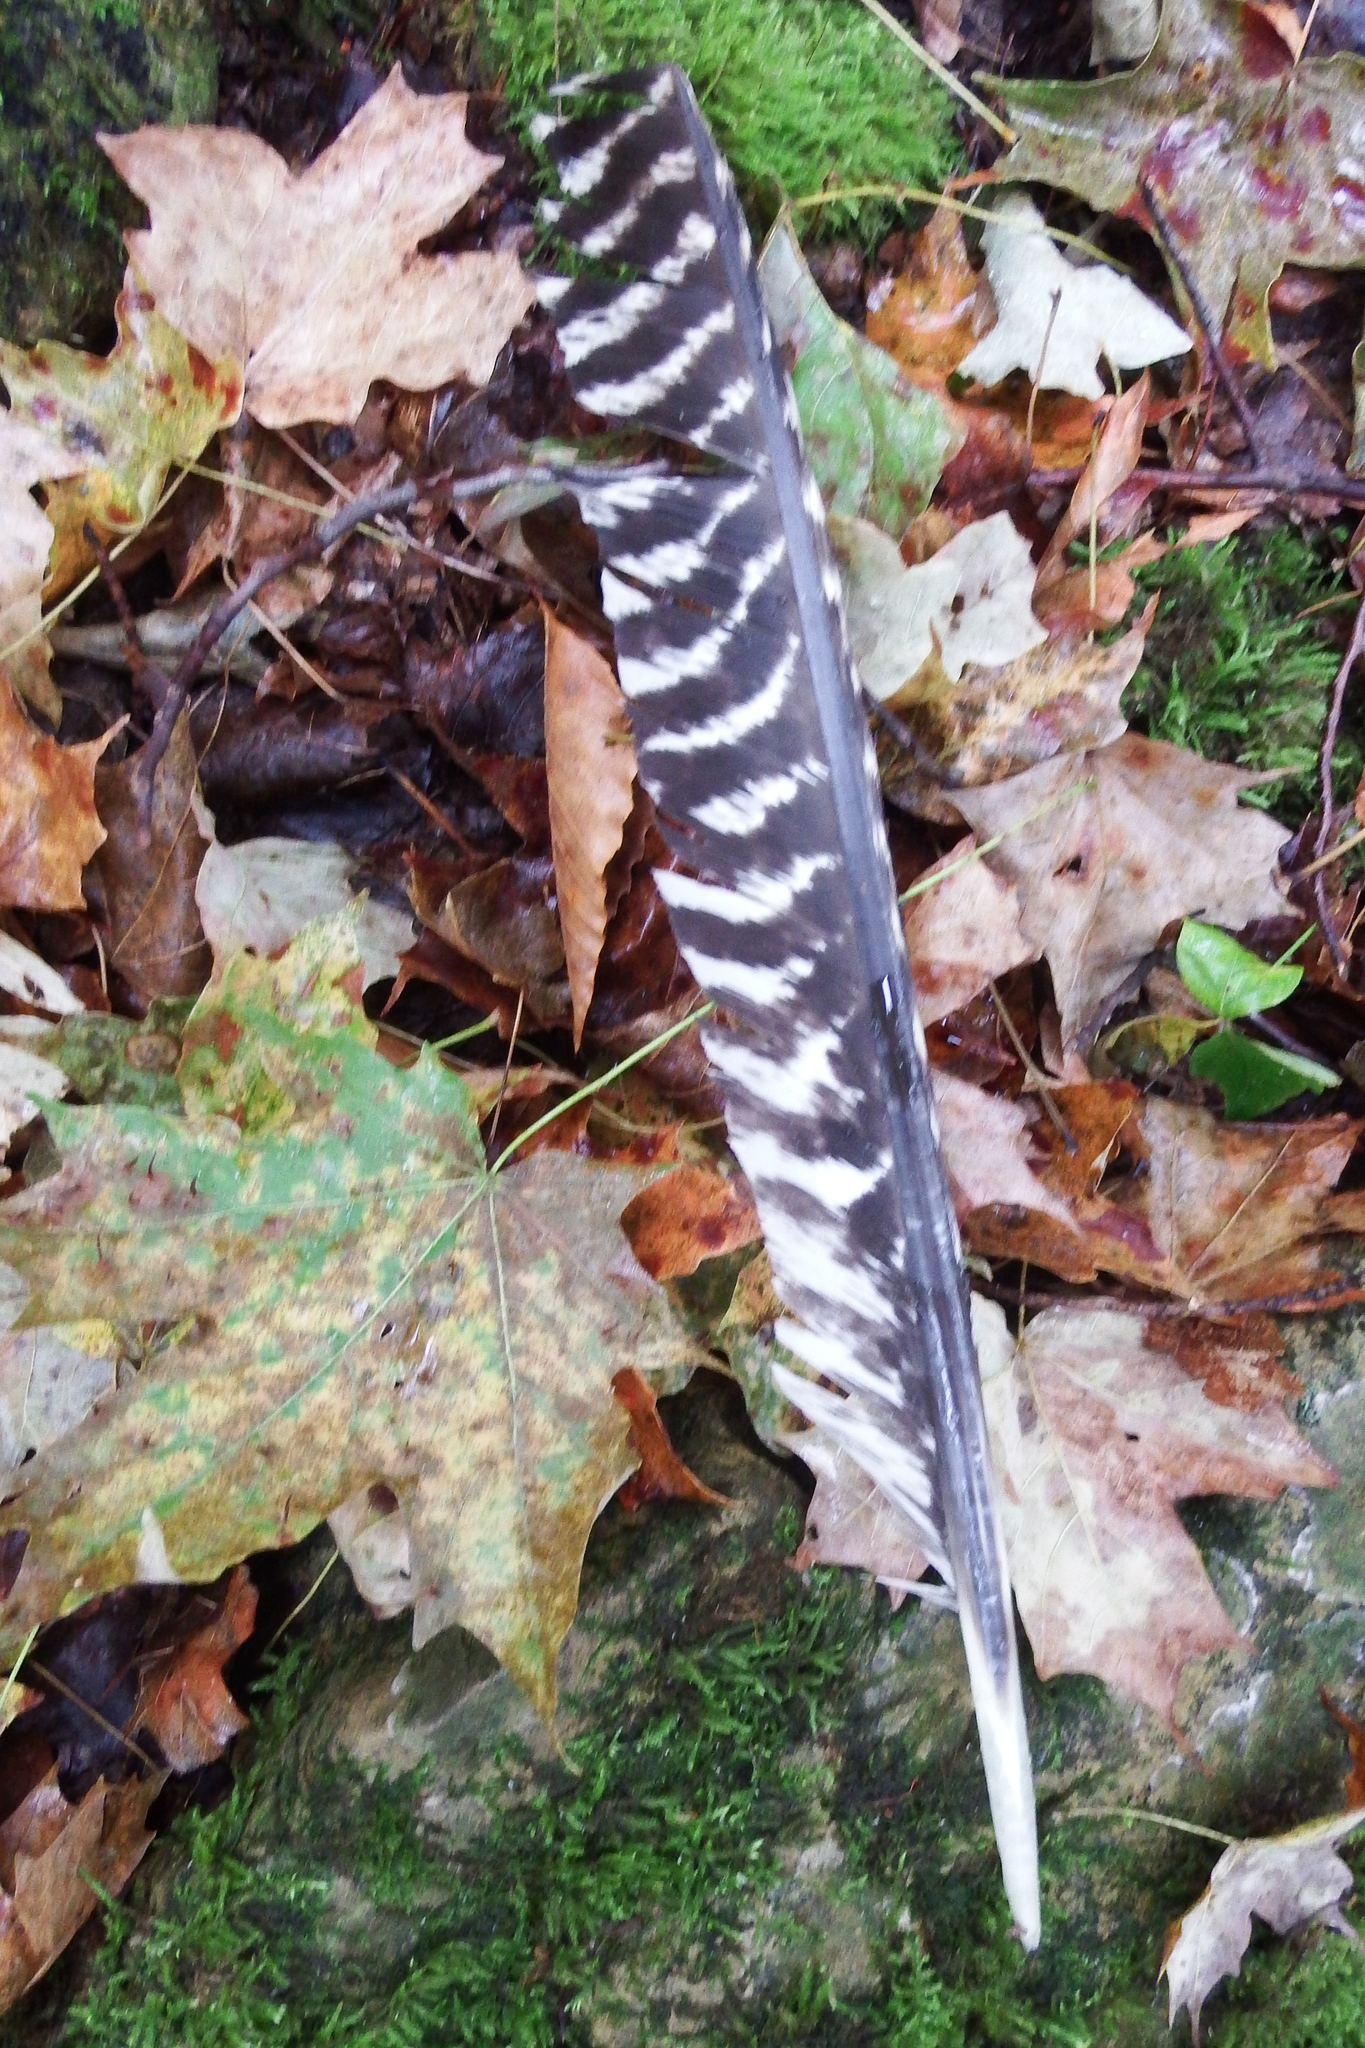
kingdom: Animalia
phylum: Chordata
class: Aves
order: Galliformes
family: Phasianidae
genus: Meleagris
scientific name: Meleagris gallopavo
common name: Wild turkey
